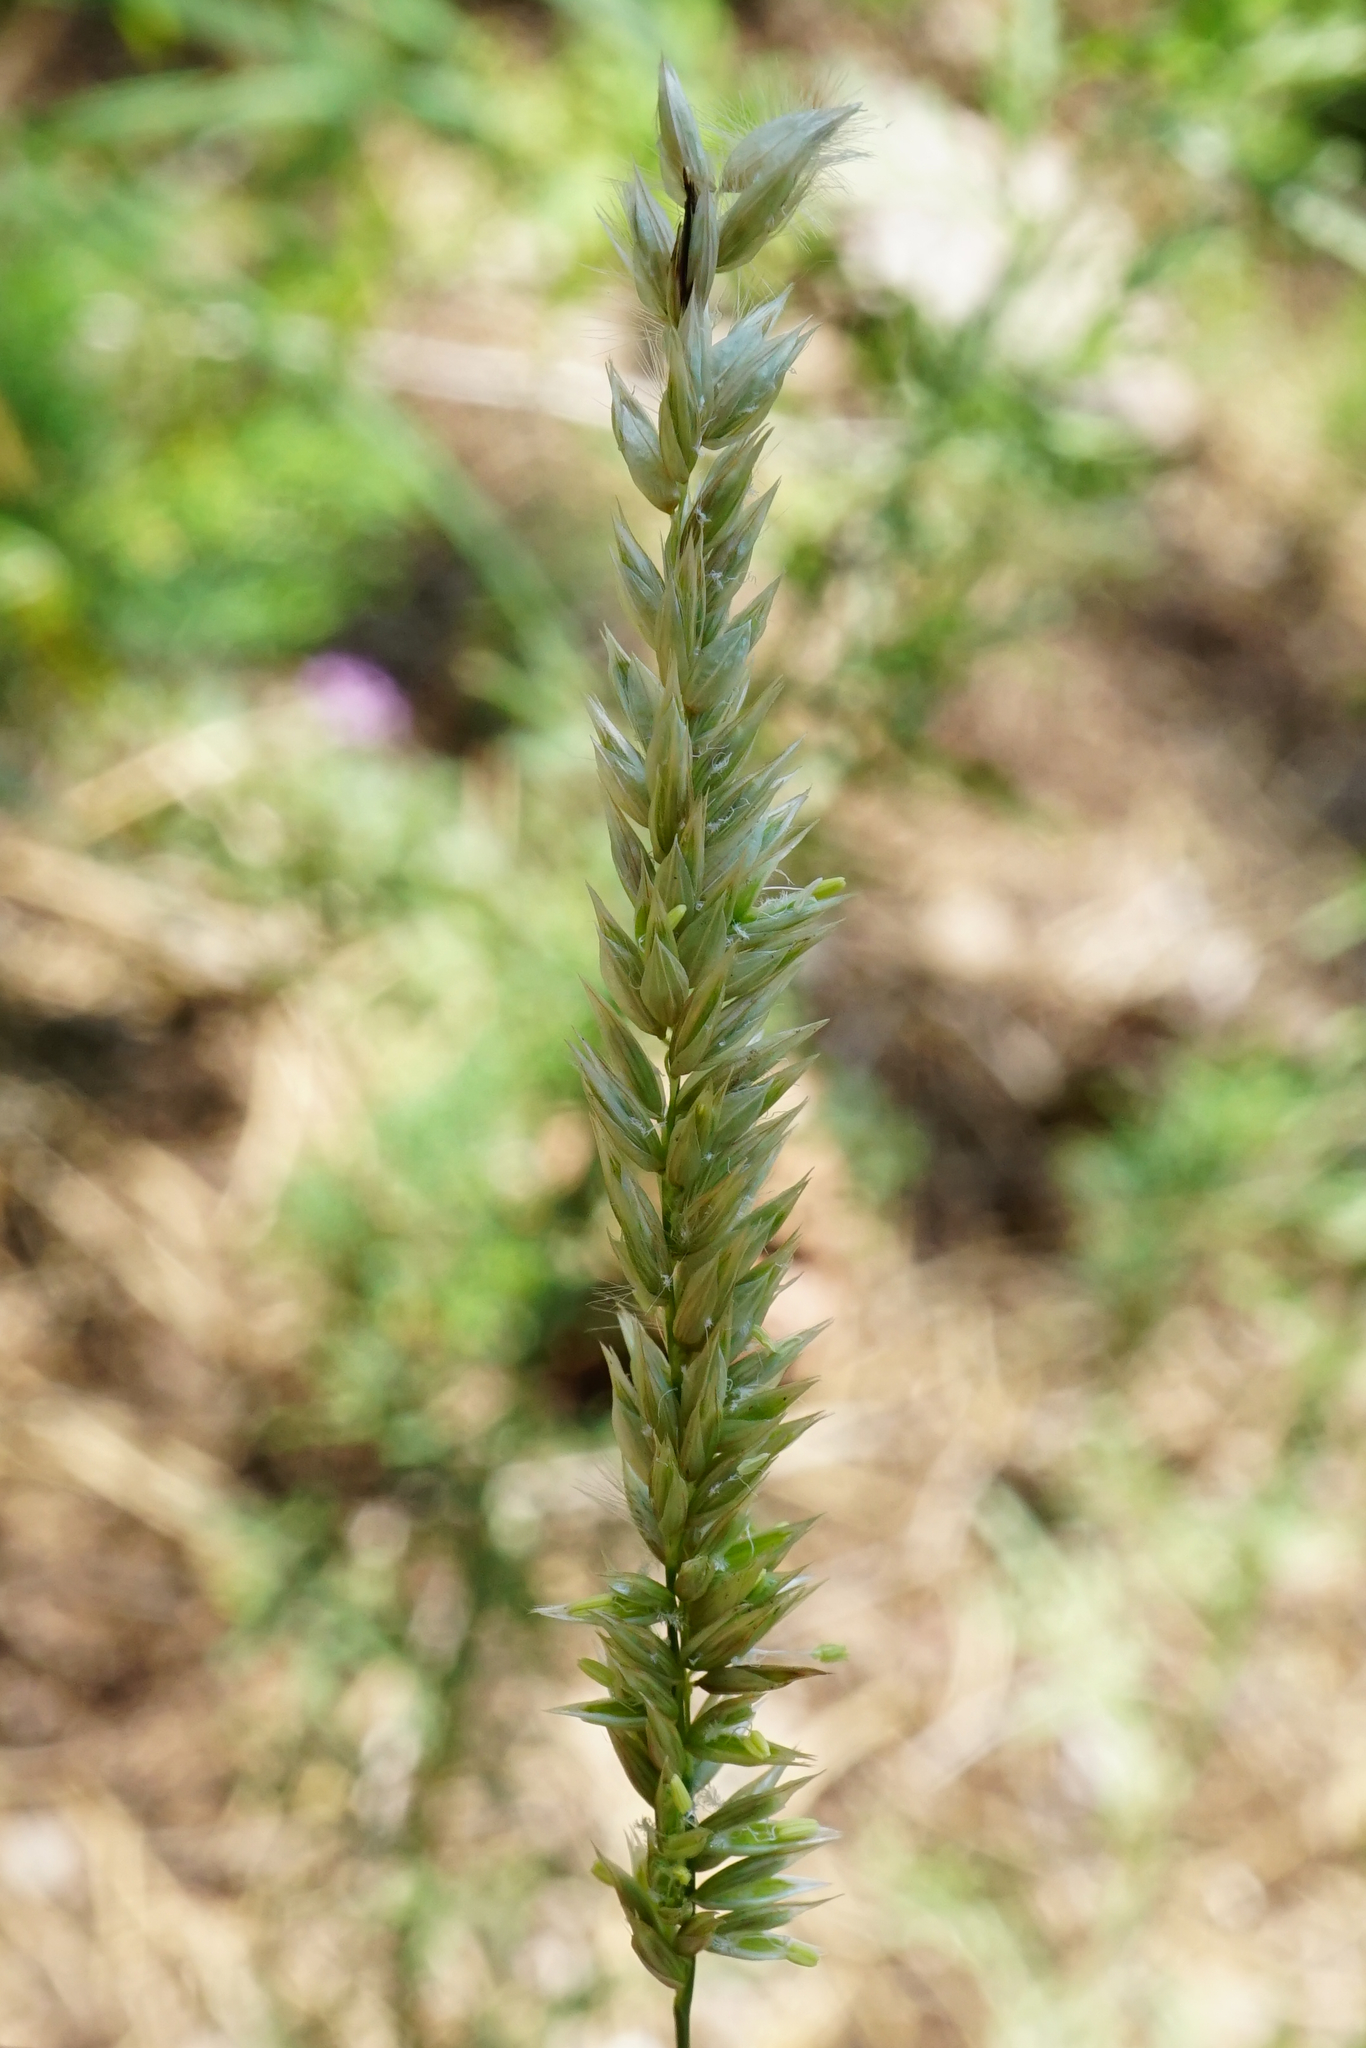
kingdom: Plantae
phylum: Tracheophyta
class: Liliopsida
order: Poales
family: Poaceae
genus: Melica
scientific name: Melica ciliata
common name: Hairy melicgrass
